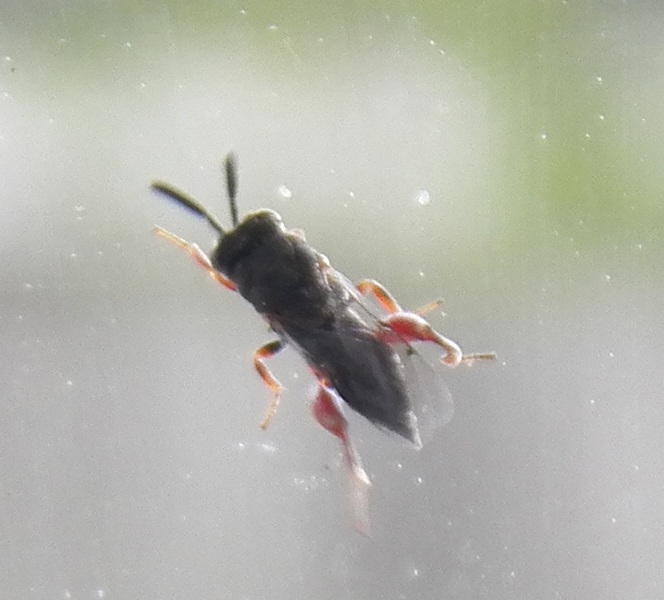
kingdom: Animalia
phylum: Arthropoda
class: Insecta
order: Hymenoptera
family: Chalcididae
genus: Brachymeria
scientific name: Brachymeria podagrica
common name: Chalcid wasp
